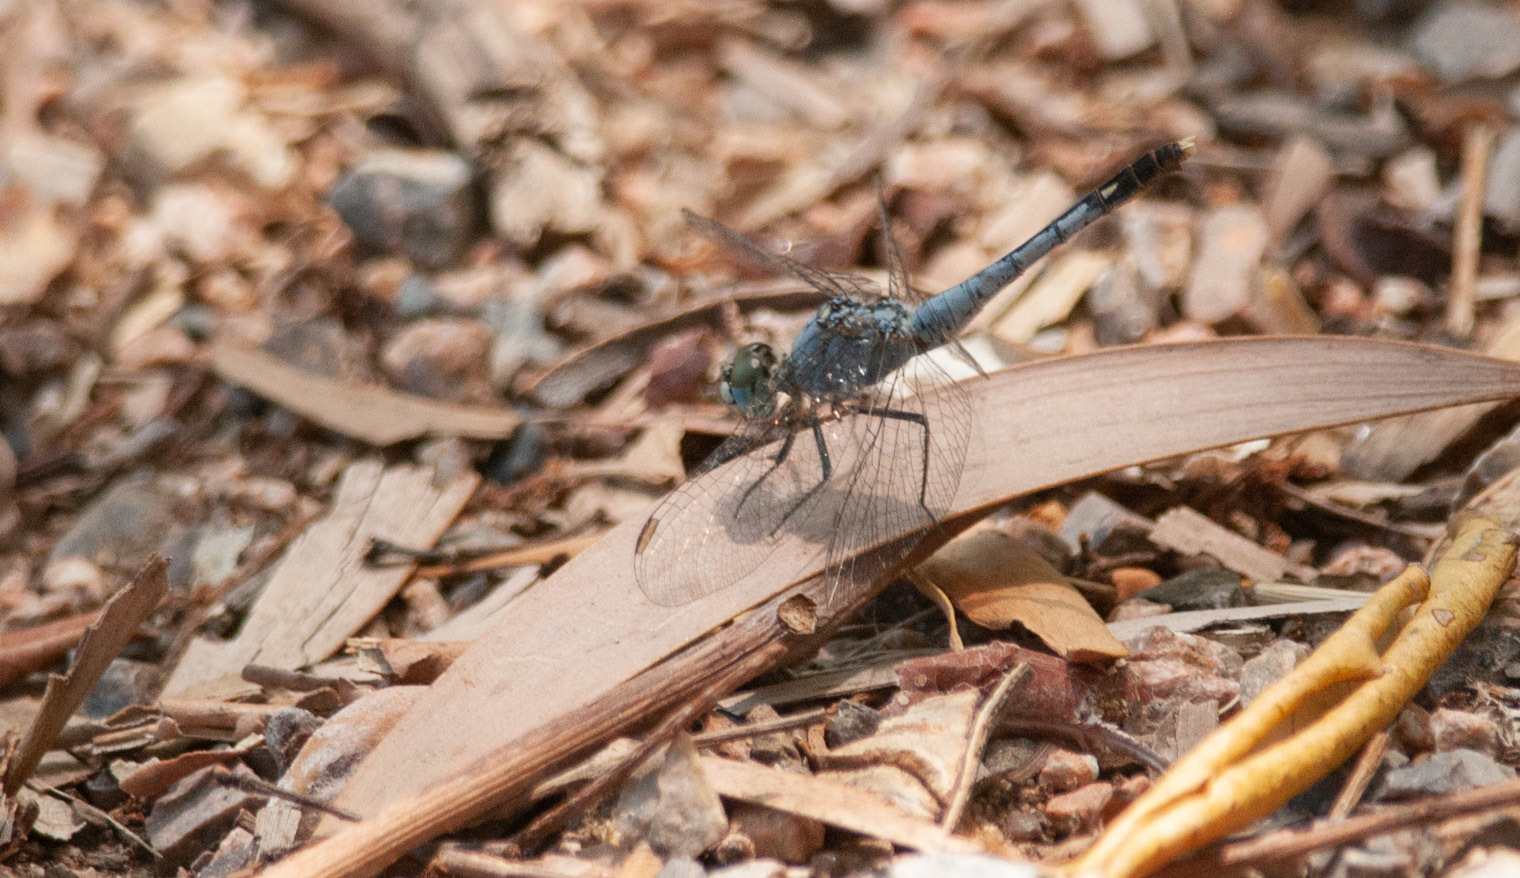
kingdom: Animalia
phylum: Arthropoda
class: Insecta
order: Odonata
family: Libellulidae
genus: Diplacodes
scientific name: Diplacodes trivialis
